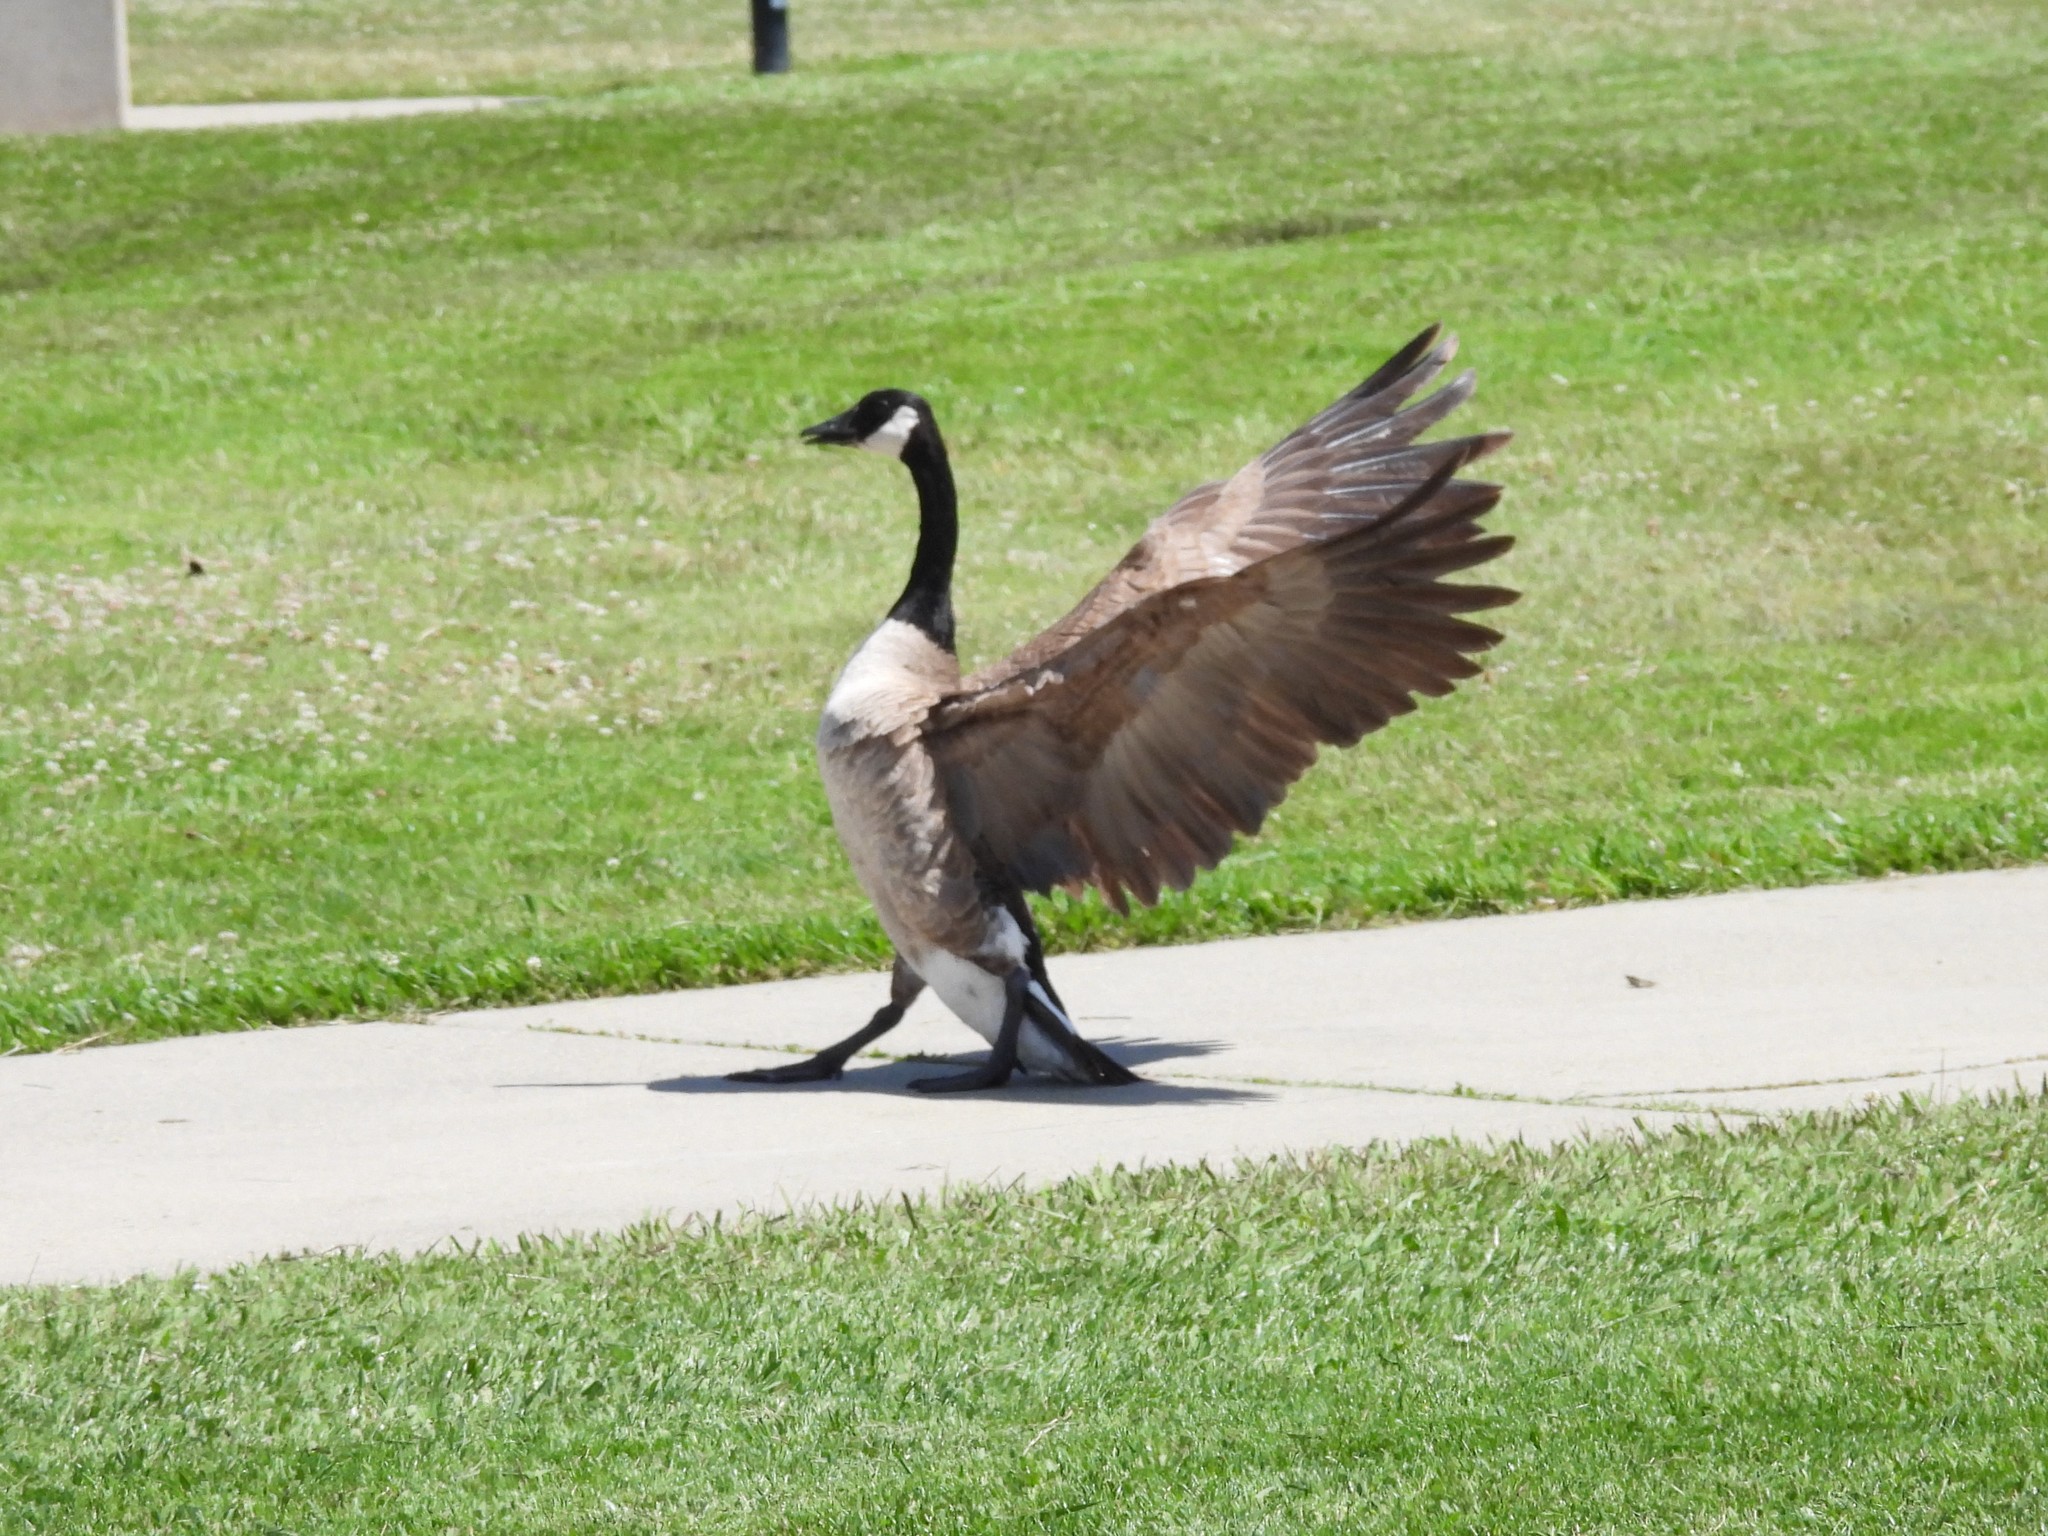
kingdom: Animalia
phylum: Chordata
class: Aves
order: Anseriformes
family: Anatidae
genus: Branta
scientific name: Branta canadensis
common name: Canada goose
